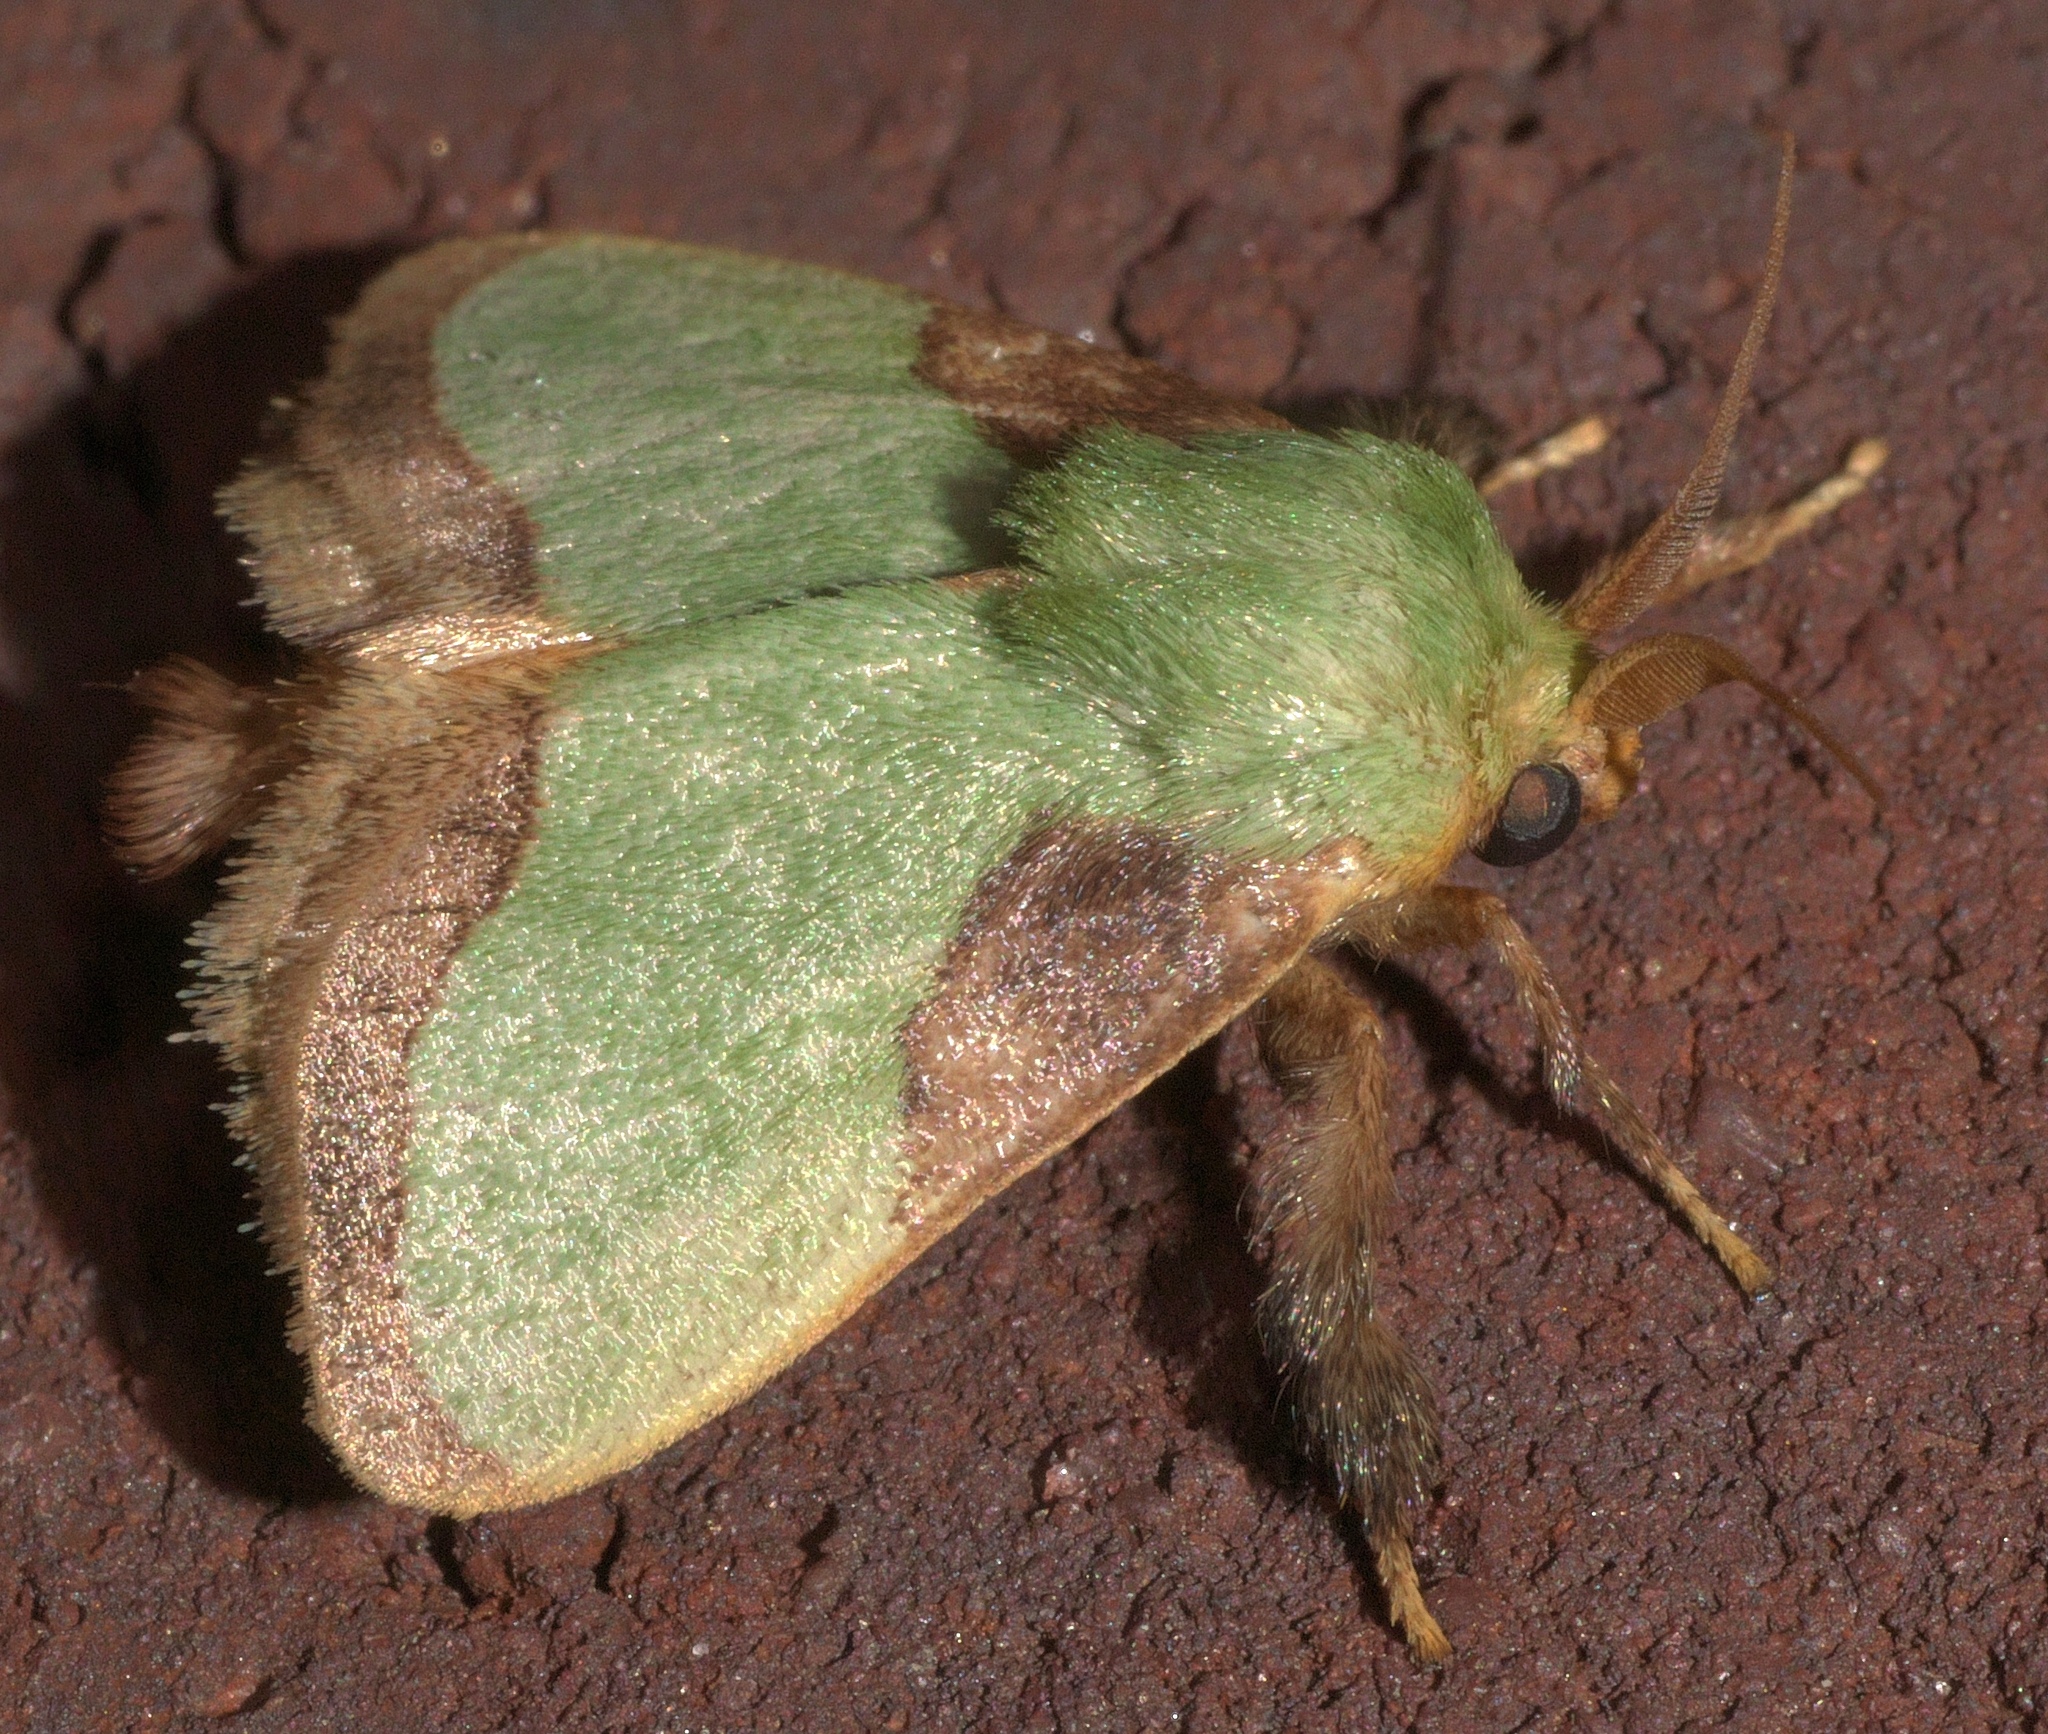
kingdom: Animalia
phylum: Arthropoda
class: Insecta
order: Lepidoptera
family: Limacodidae
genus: Parasa
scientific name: Parasa indetermina
